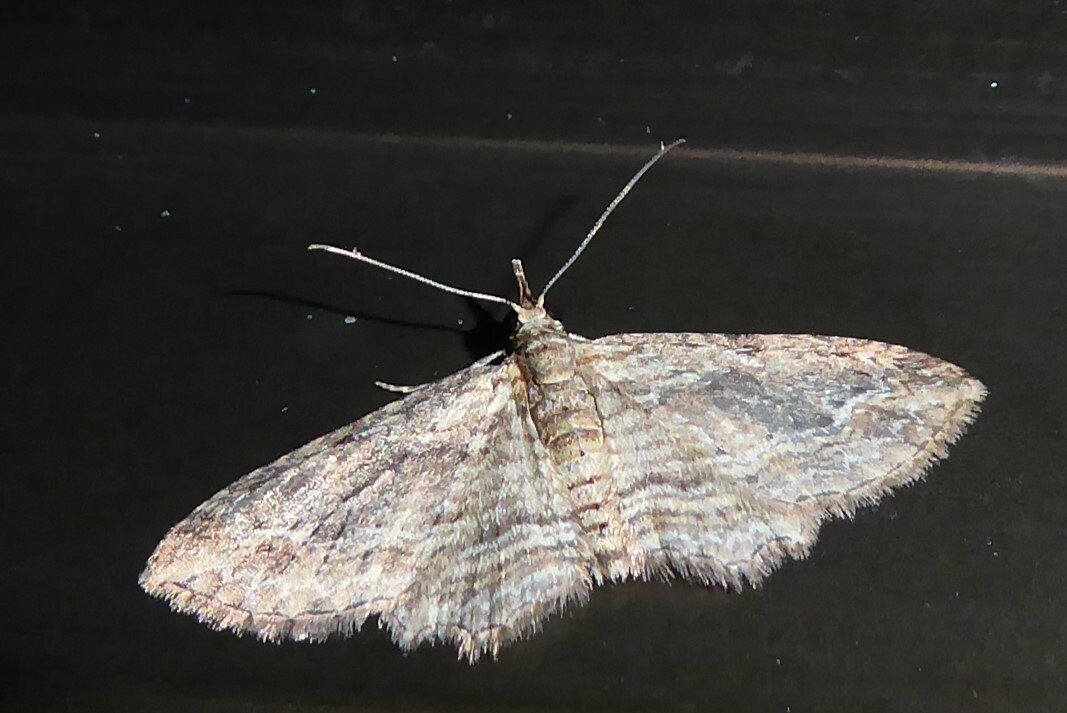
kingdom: Animalia
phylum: Arthropoda
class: Insecta
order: Lepidoptera
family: Geometridae
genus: Chloroclystis
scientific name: Chloroclystis filata
